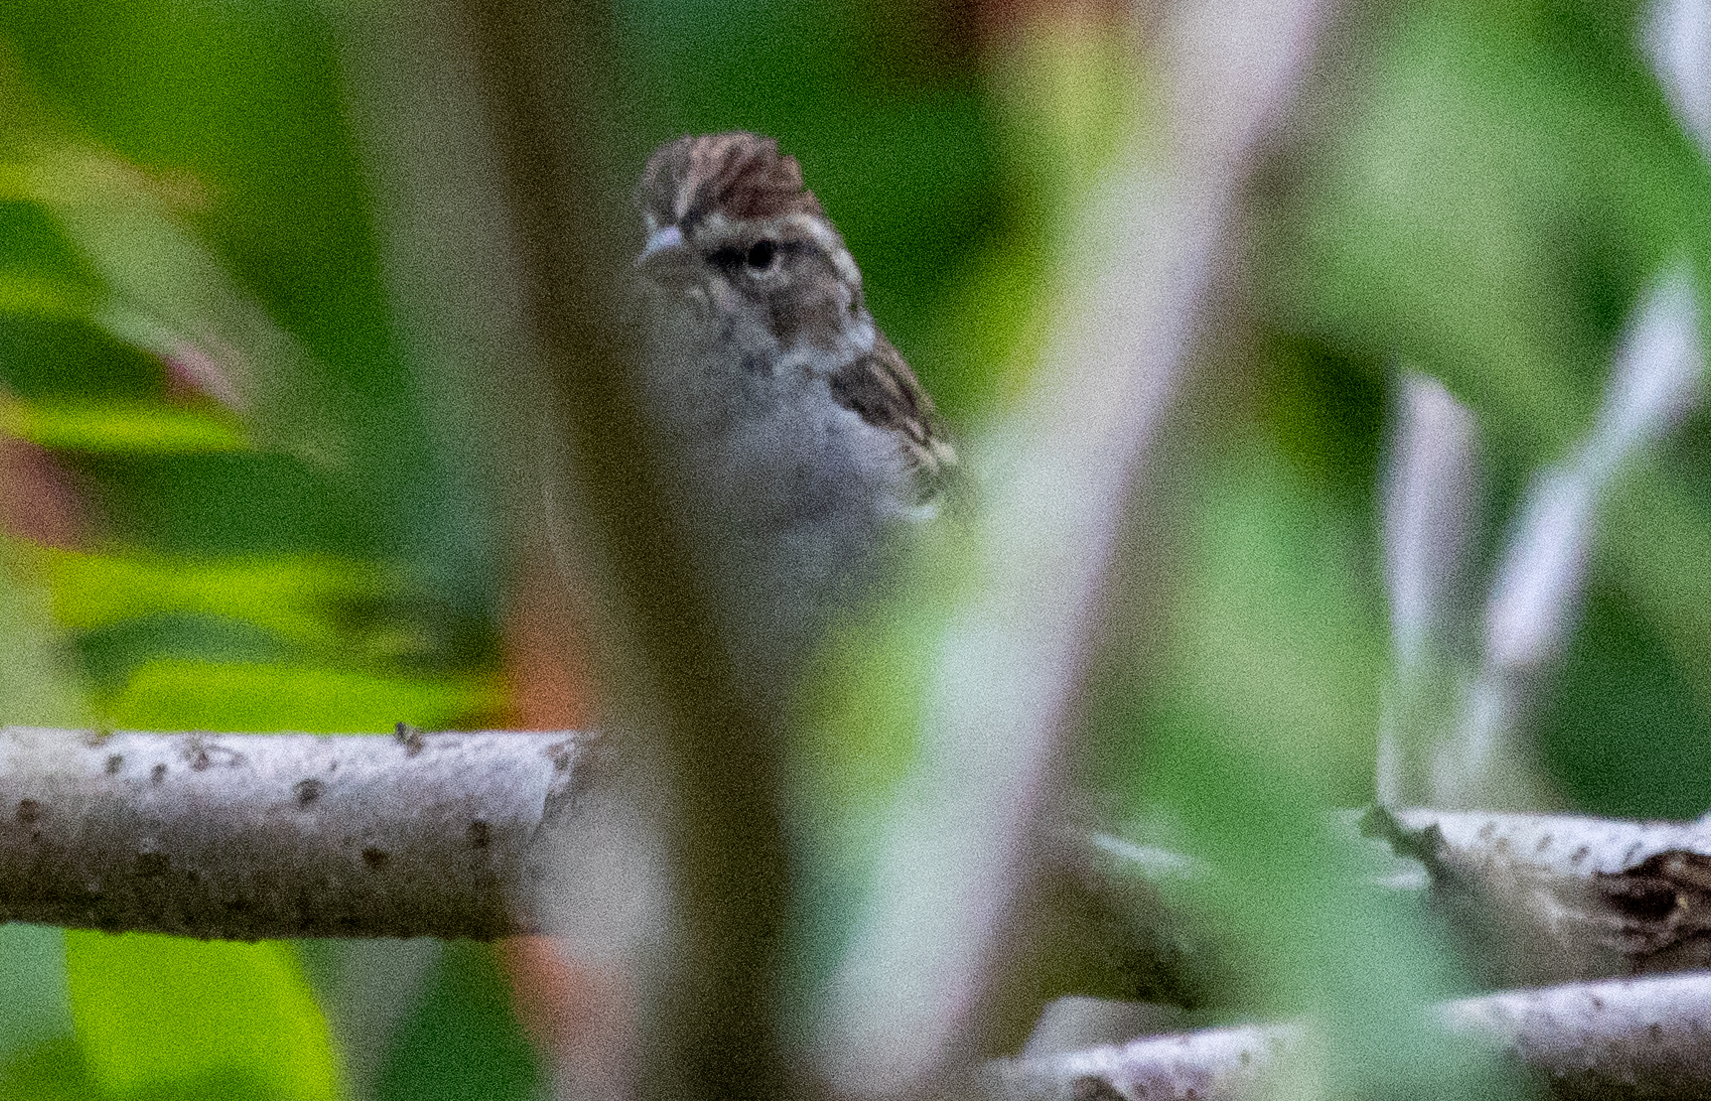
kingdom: Animalia
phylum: Chordata
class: Aves
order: Passeriformes
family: Passerellidae
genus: Spizella
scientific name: Spizella passerina
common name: Chipping sparrow
